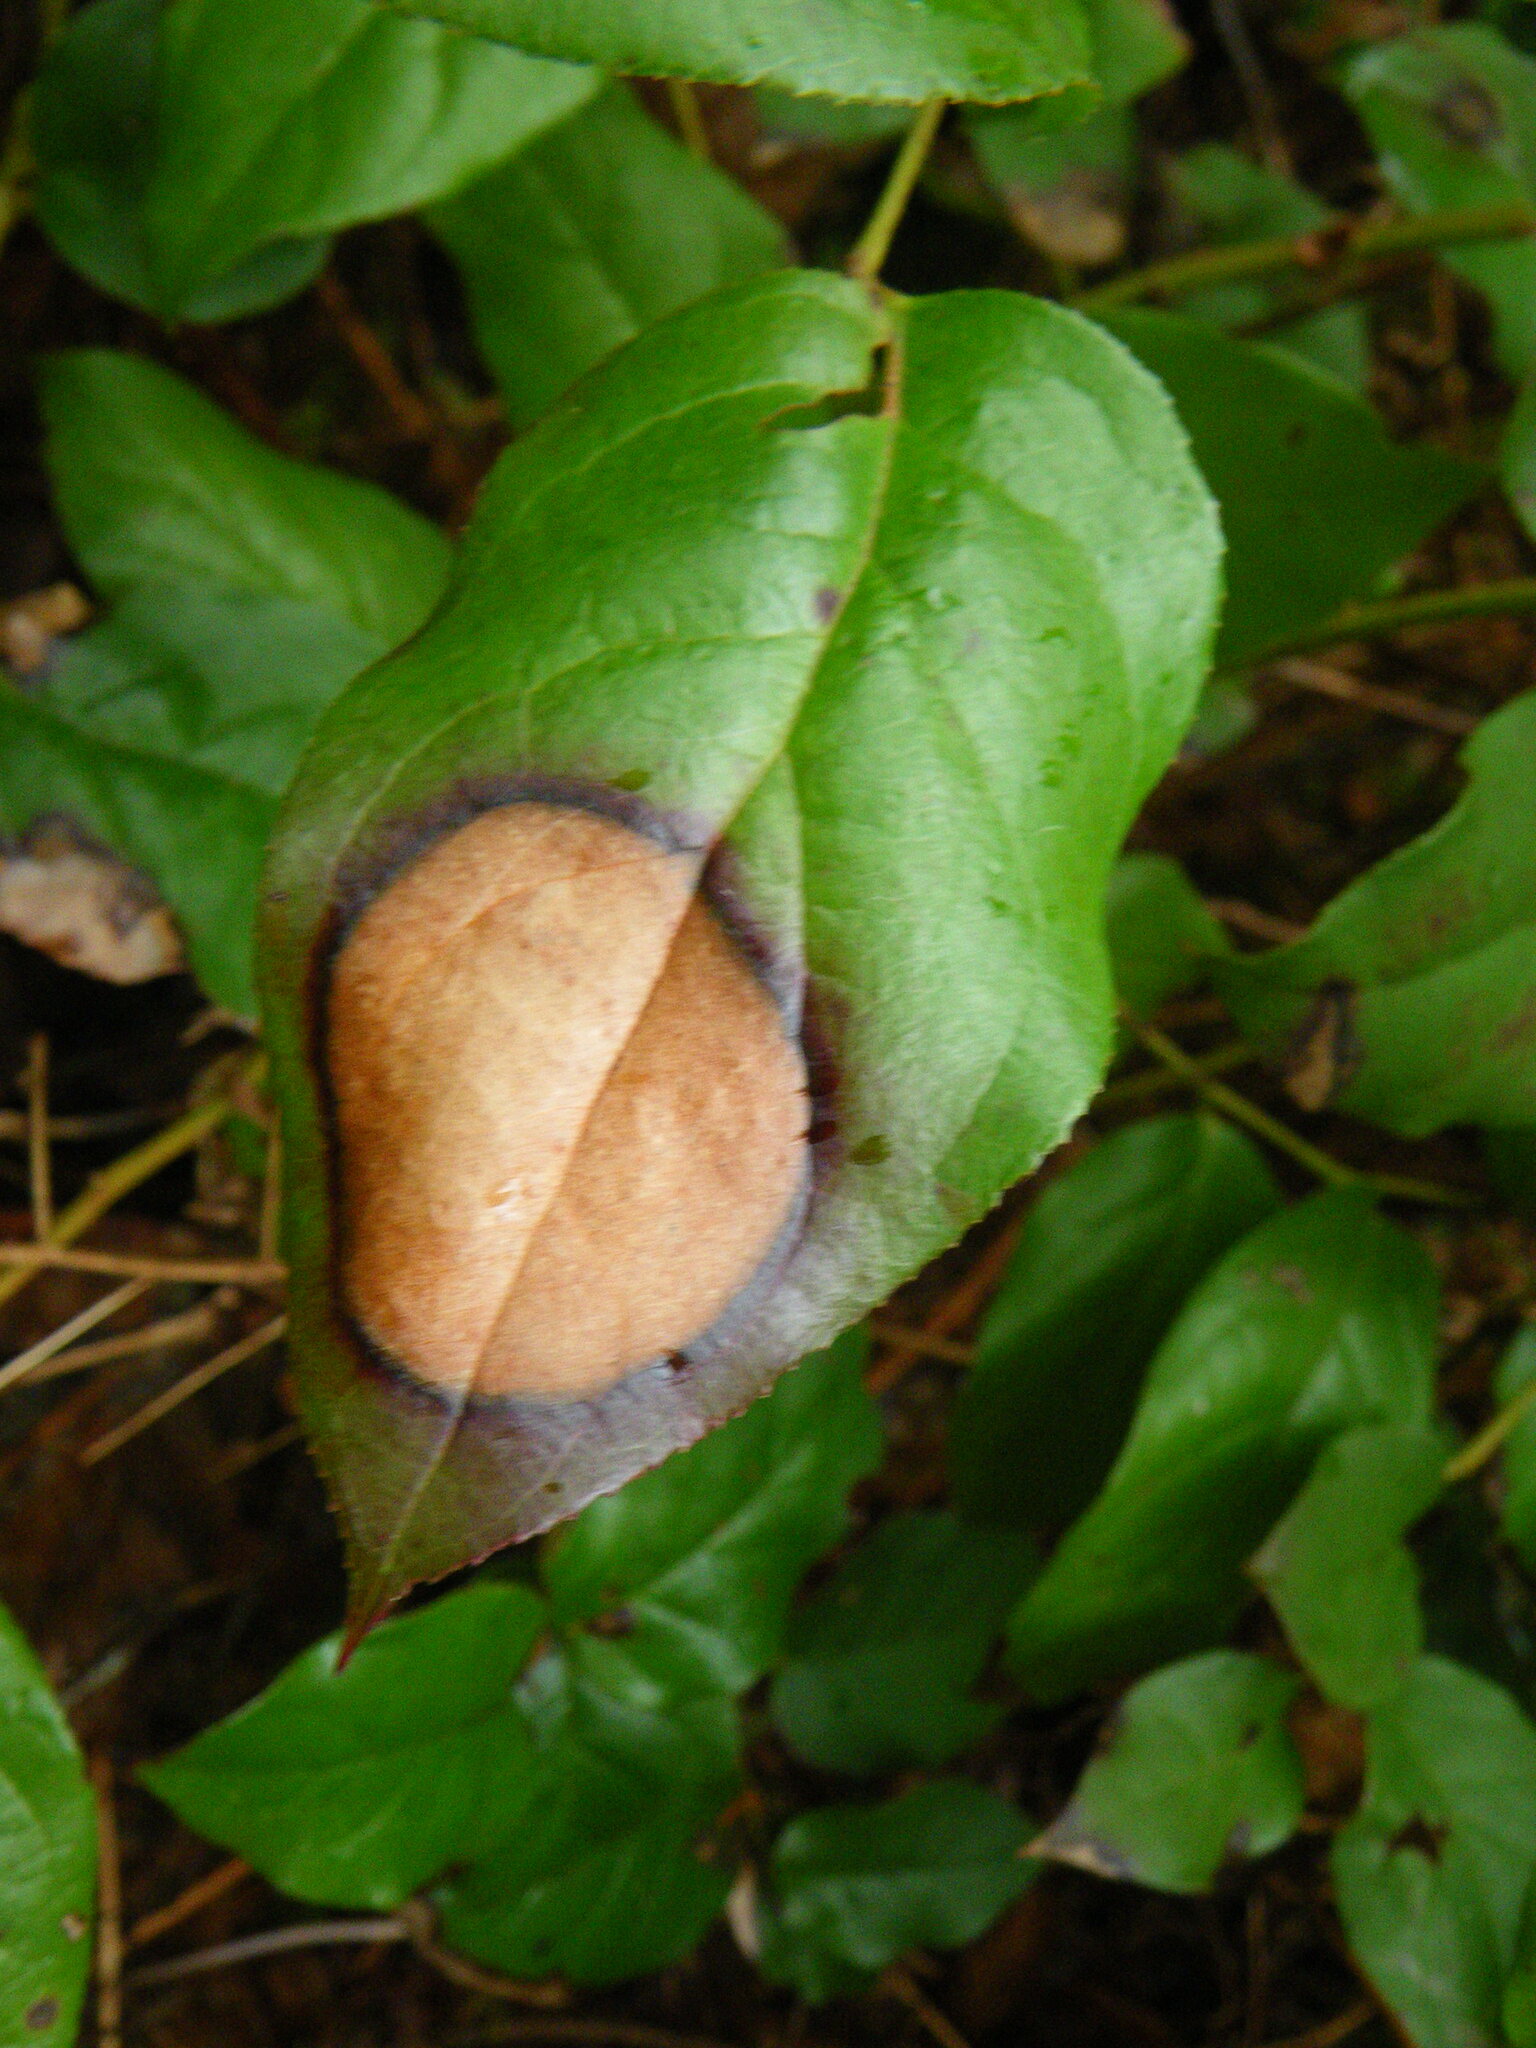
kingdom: Plantae
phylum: Tracheophyta
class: Magnoliopsida
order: Ericales
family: Ericaceae
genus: Gaultheria
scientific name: Gaultheria shallon
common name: Shallon
